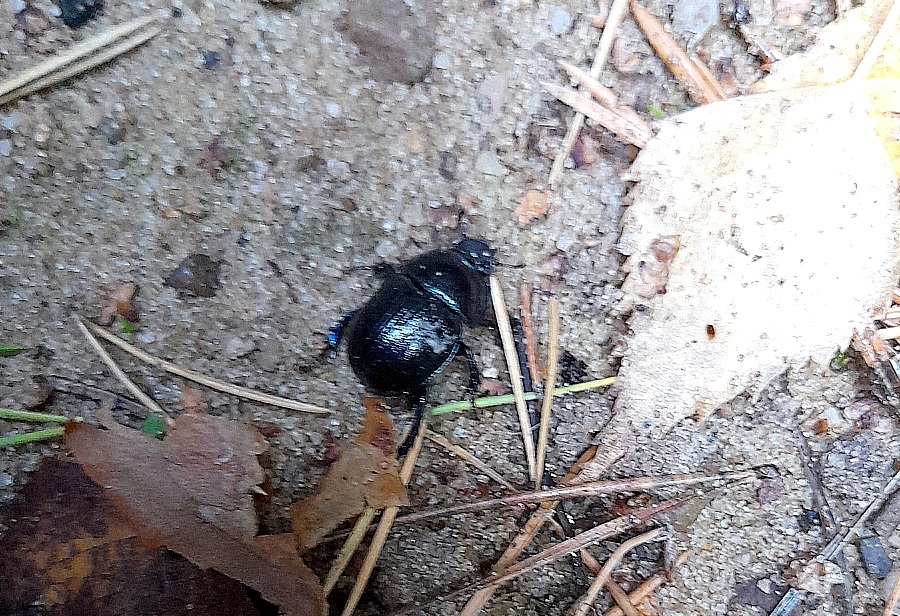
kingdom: Animalia
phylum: Arthropoda
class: Insecta
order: Coleoptera
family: Geotrupidae
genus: Anoplotrupes
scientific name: Anoplotrupes stercorosus
